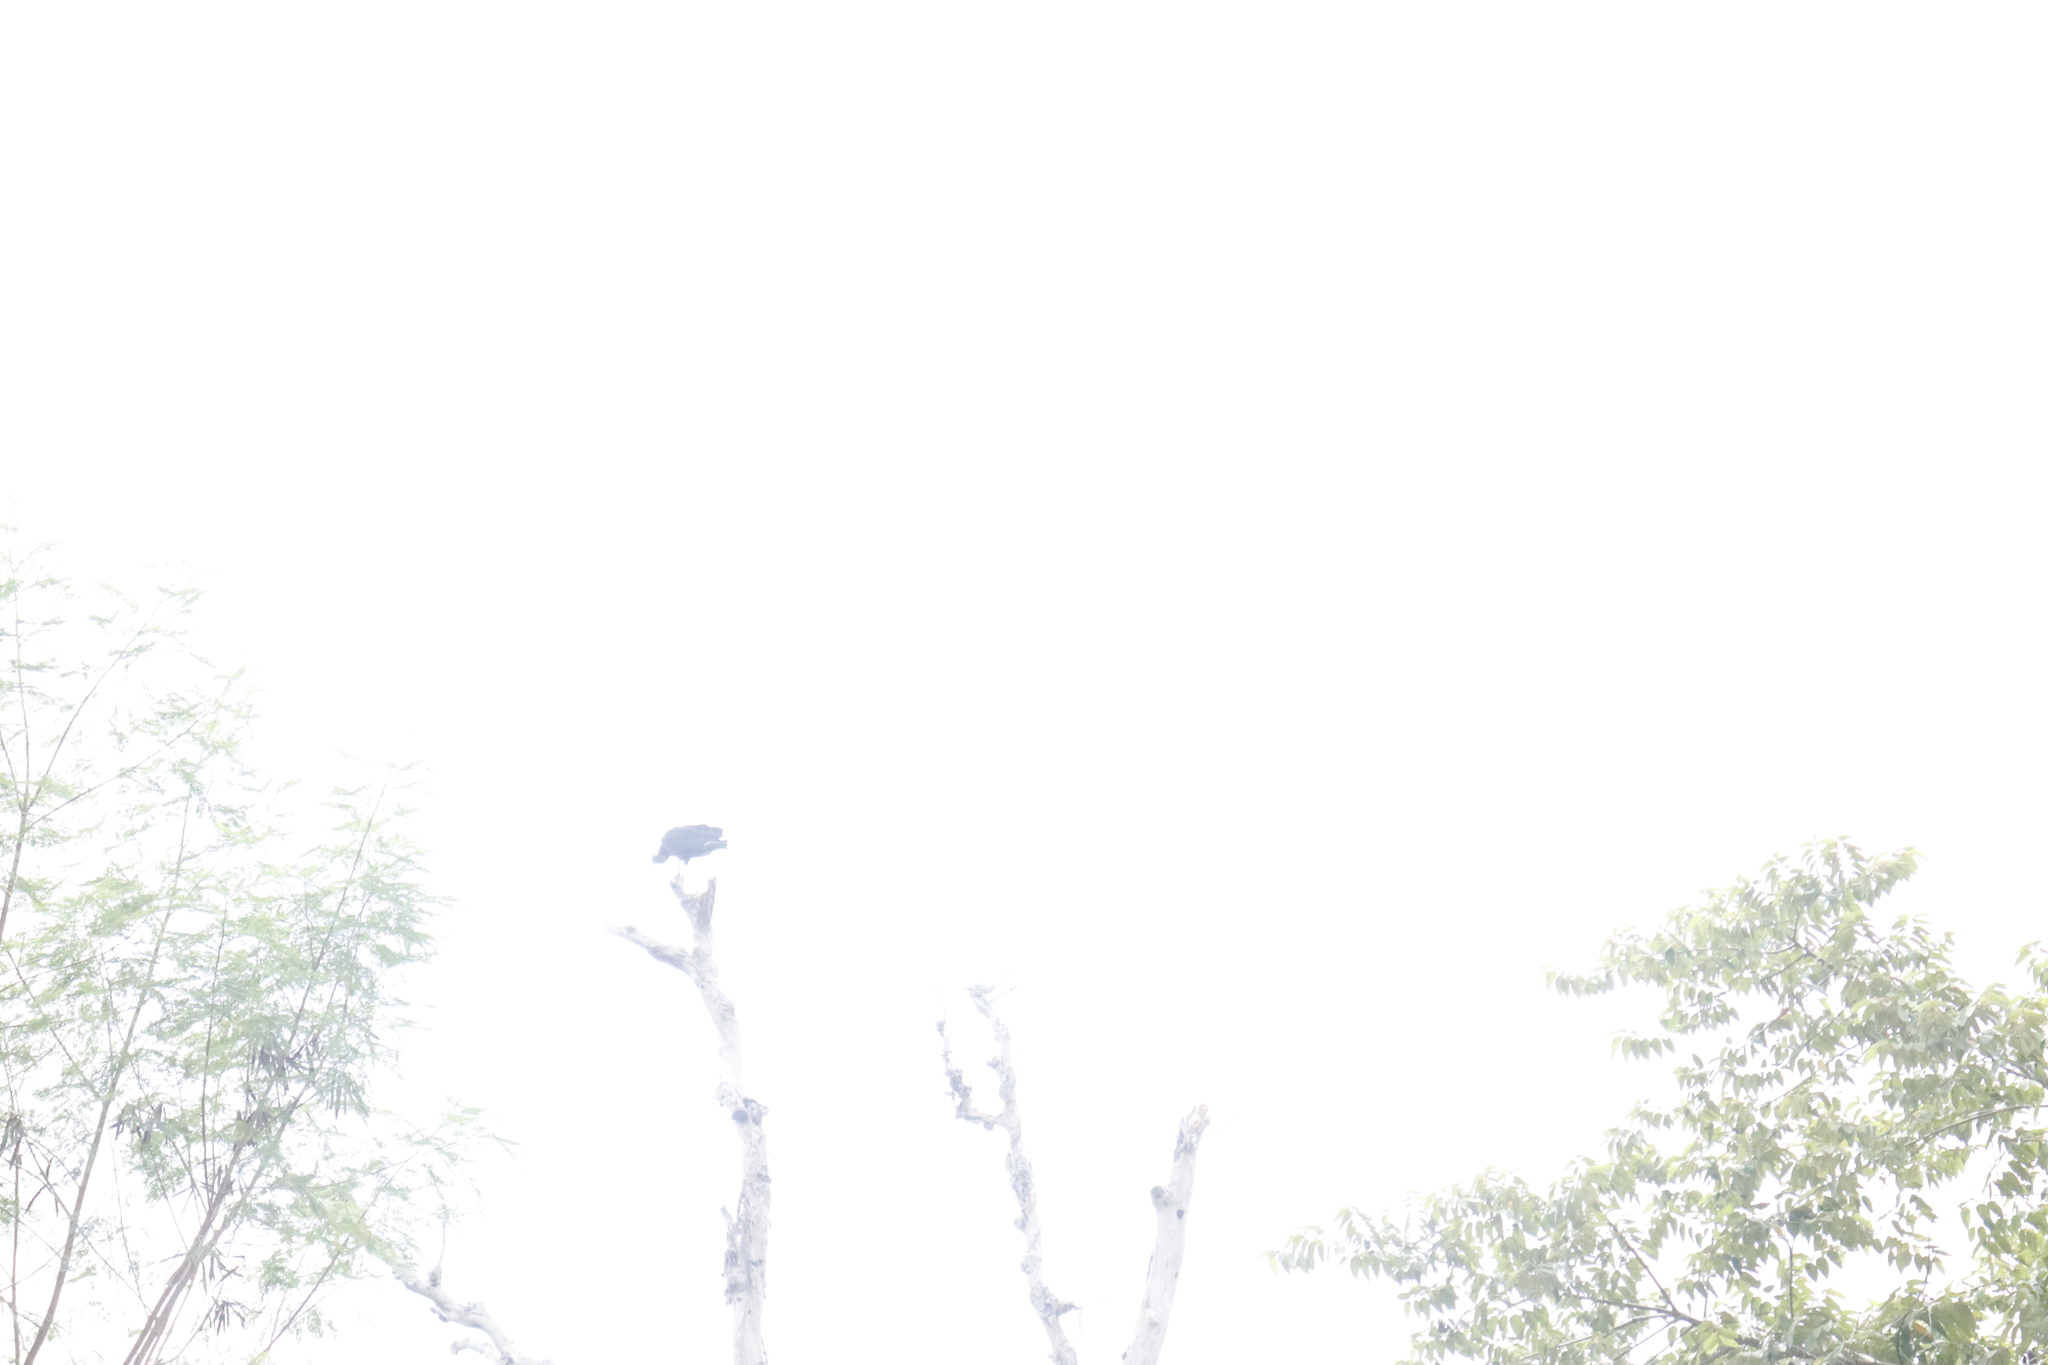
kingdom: Animalia
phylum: Chordata
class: Aves
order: Accipitriformes
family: Cathartidae
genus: Coragyps
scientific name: Coragyps atratus
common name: Black vulture
